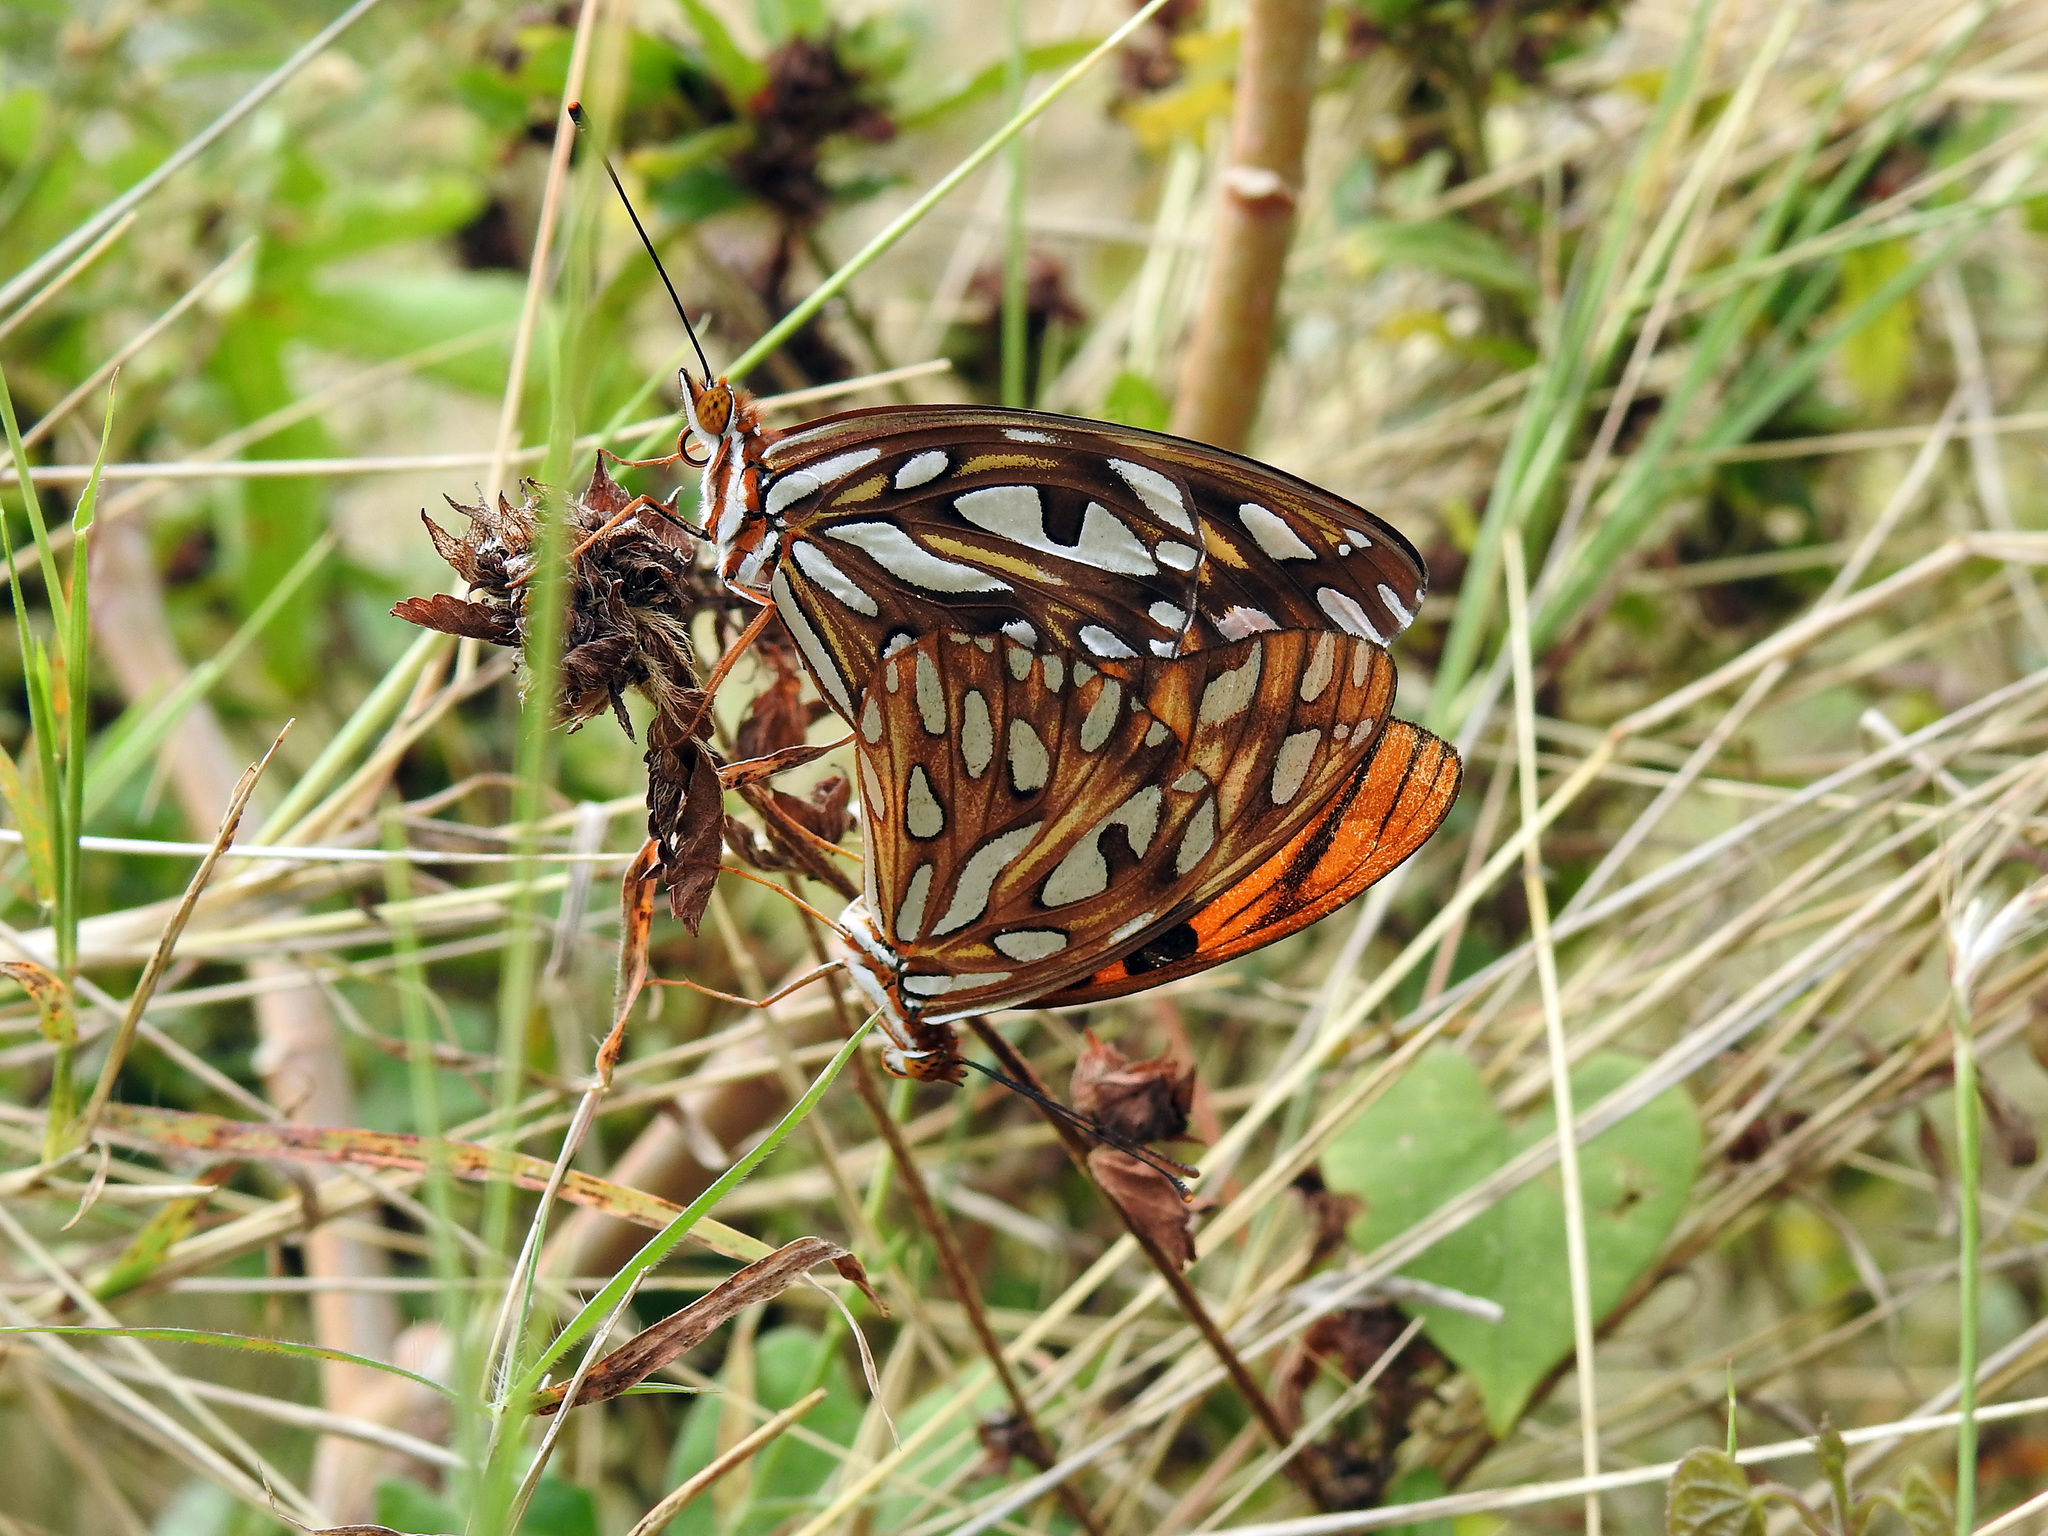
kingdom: Animalia
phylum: Arthropoda
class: Insecta
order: Lepidoptera
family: Nymphalidae
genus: Dione
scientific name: Dione vanillae
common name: Gulf fritillary
